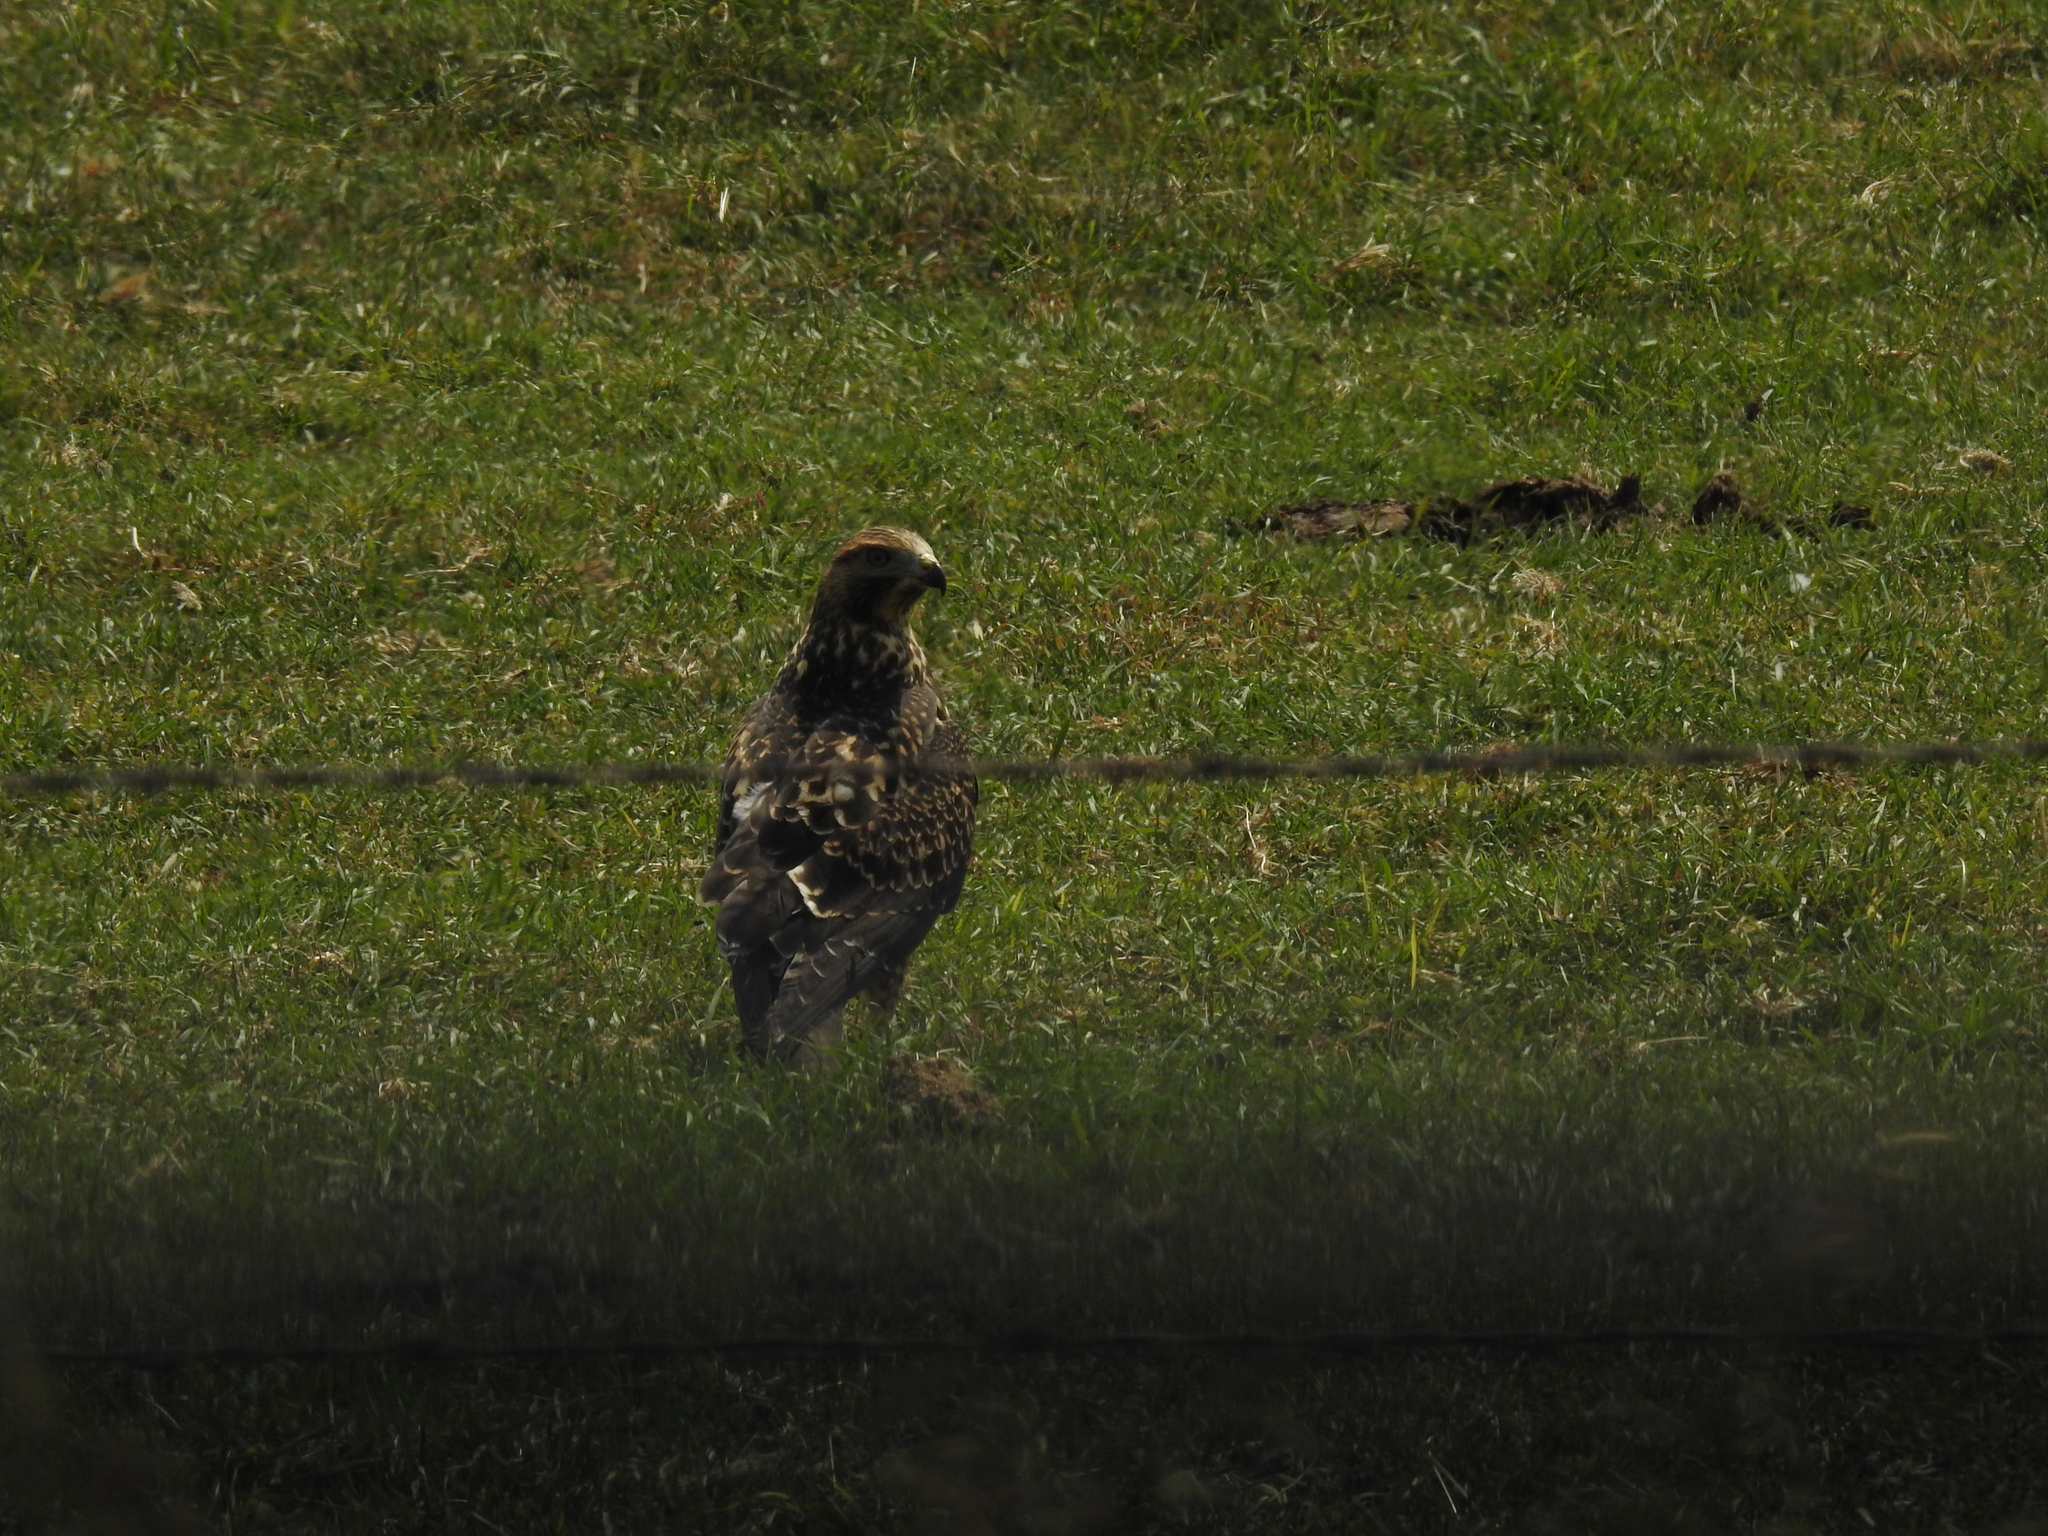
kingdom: Animalia
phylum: Chordata
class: Aves
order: Accipitriformes
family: Accipitridae
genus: Buteo
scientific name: Buteo swainsoni
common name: Swainson's hawk
